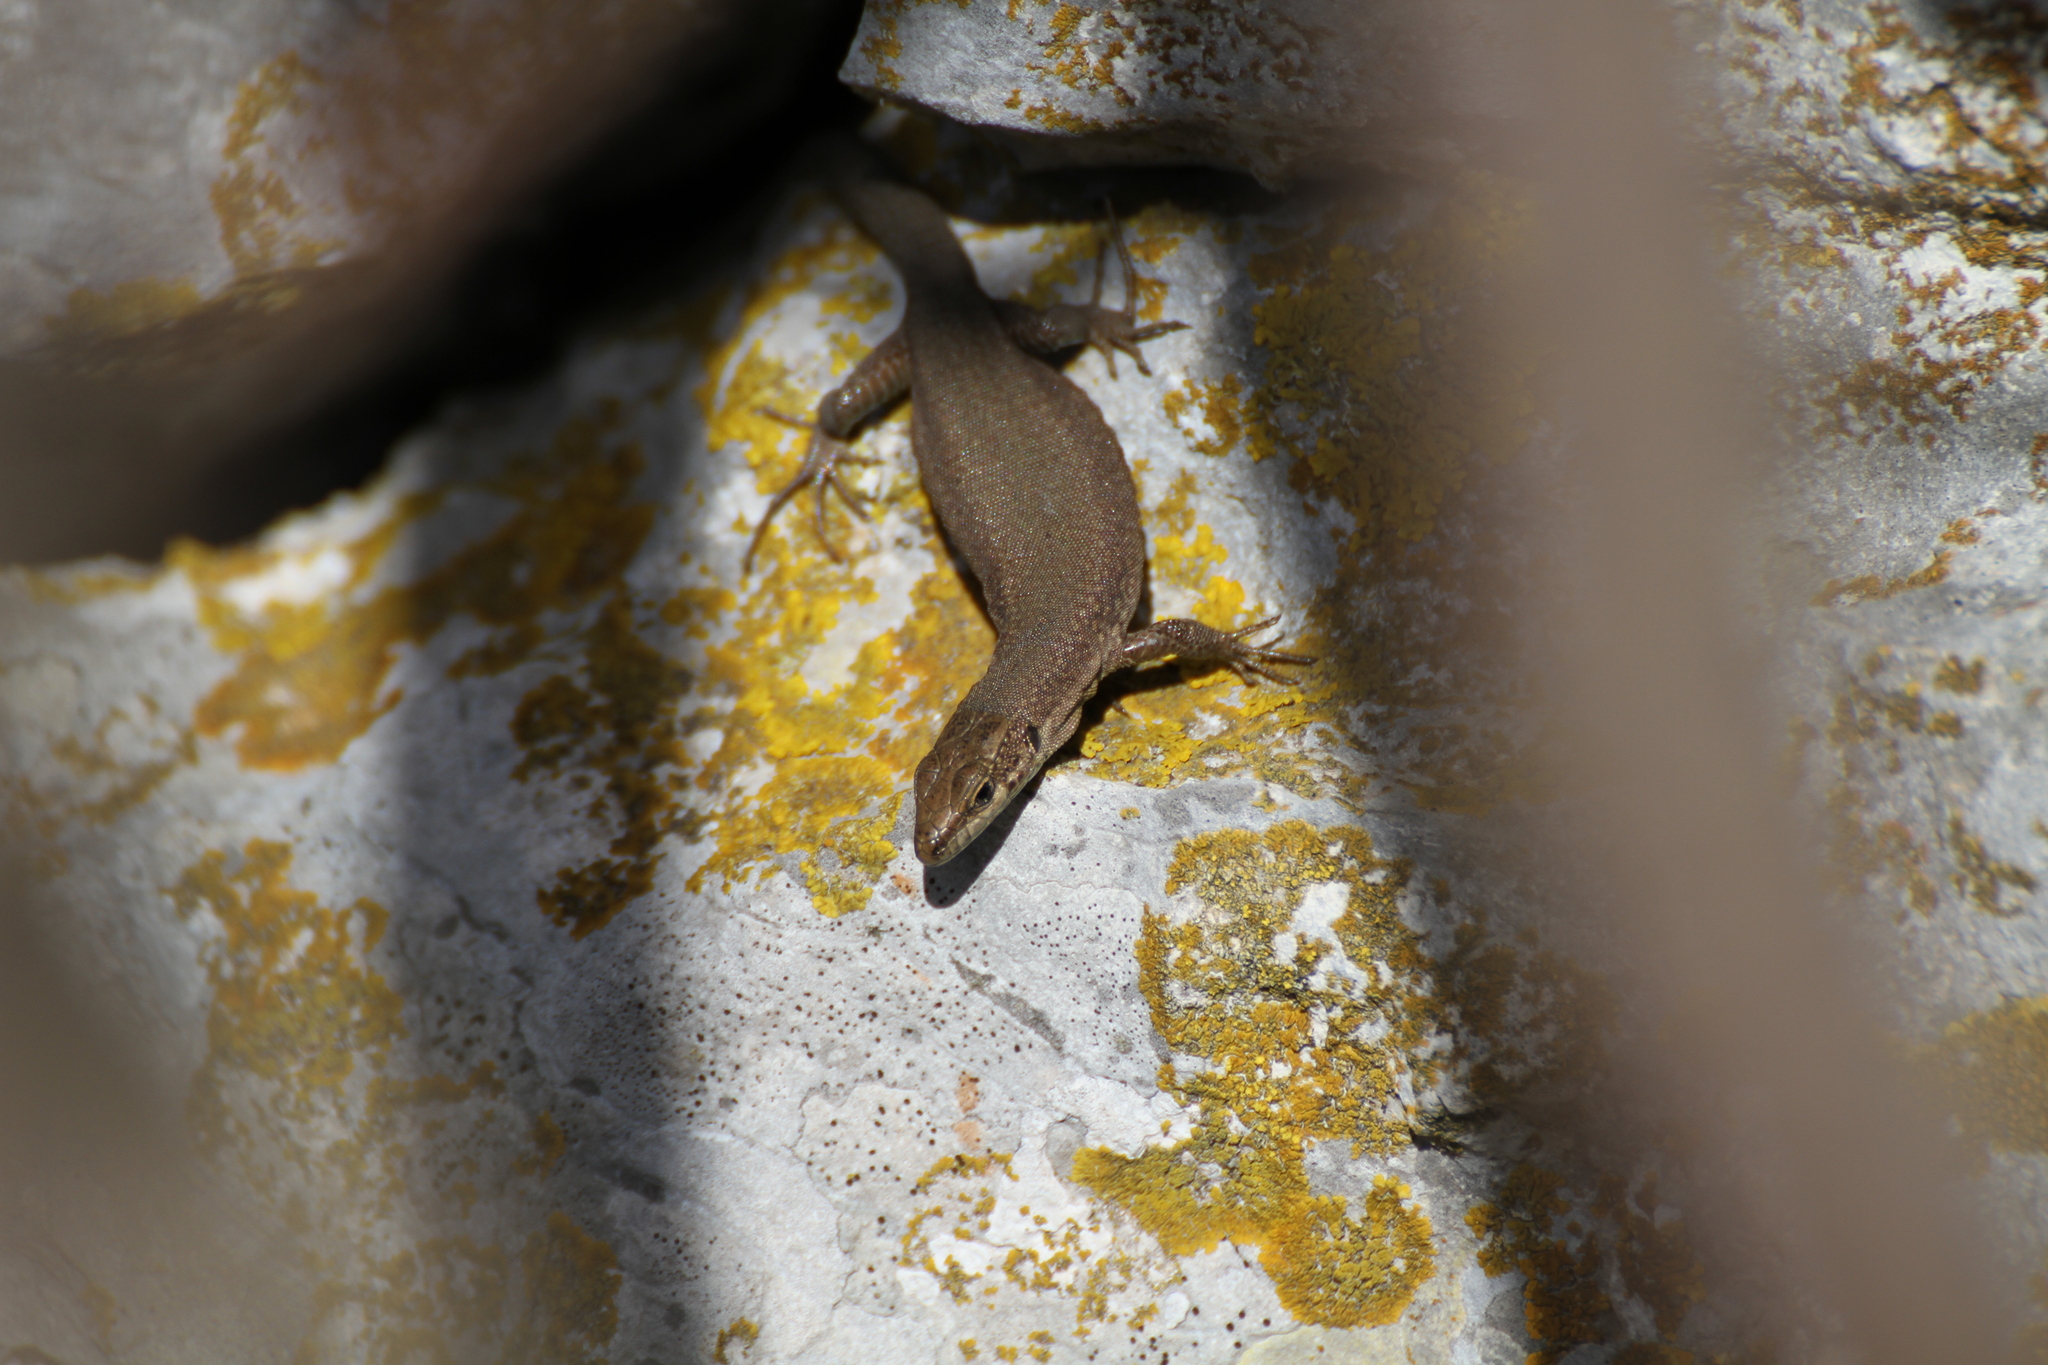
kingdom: Animalia
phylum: Chordata
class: Squamata
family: Lacertidae
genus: Podarcis
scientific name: Podarcis liolepis
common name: Catalonian wall lizard
